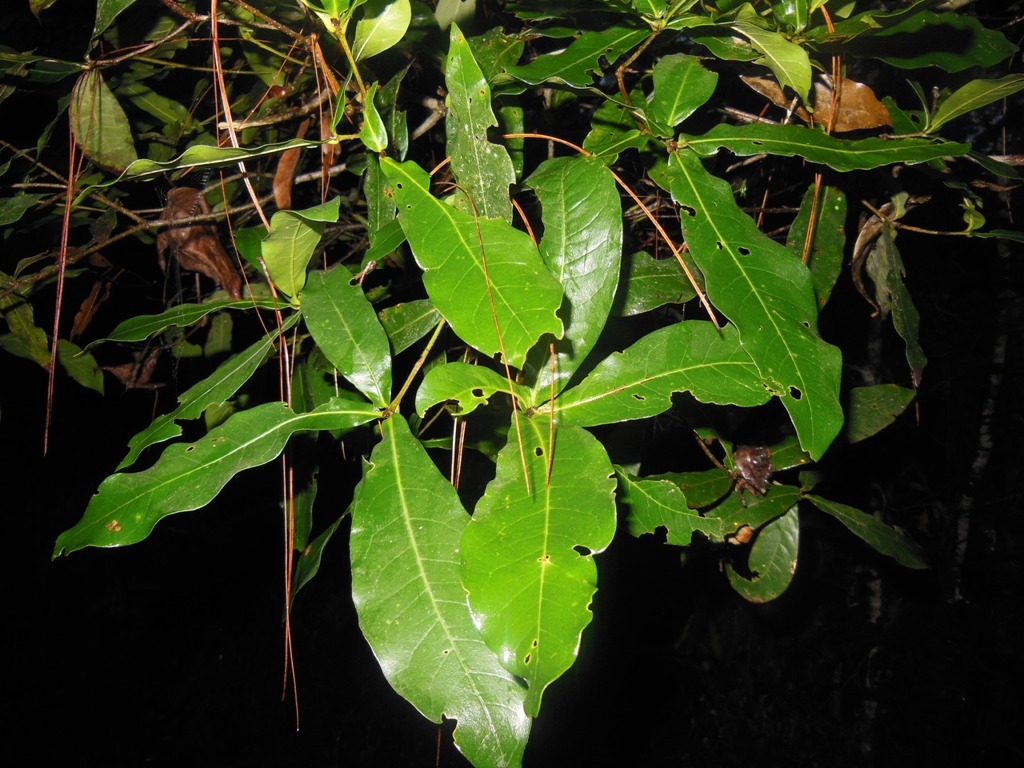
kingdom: Plantae
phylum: Tracheophyta
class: Magnoliopsida
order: Fagales
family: Fagaceae
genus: Quercus
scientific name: Quercus sapotifolia
